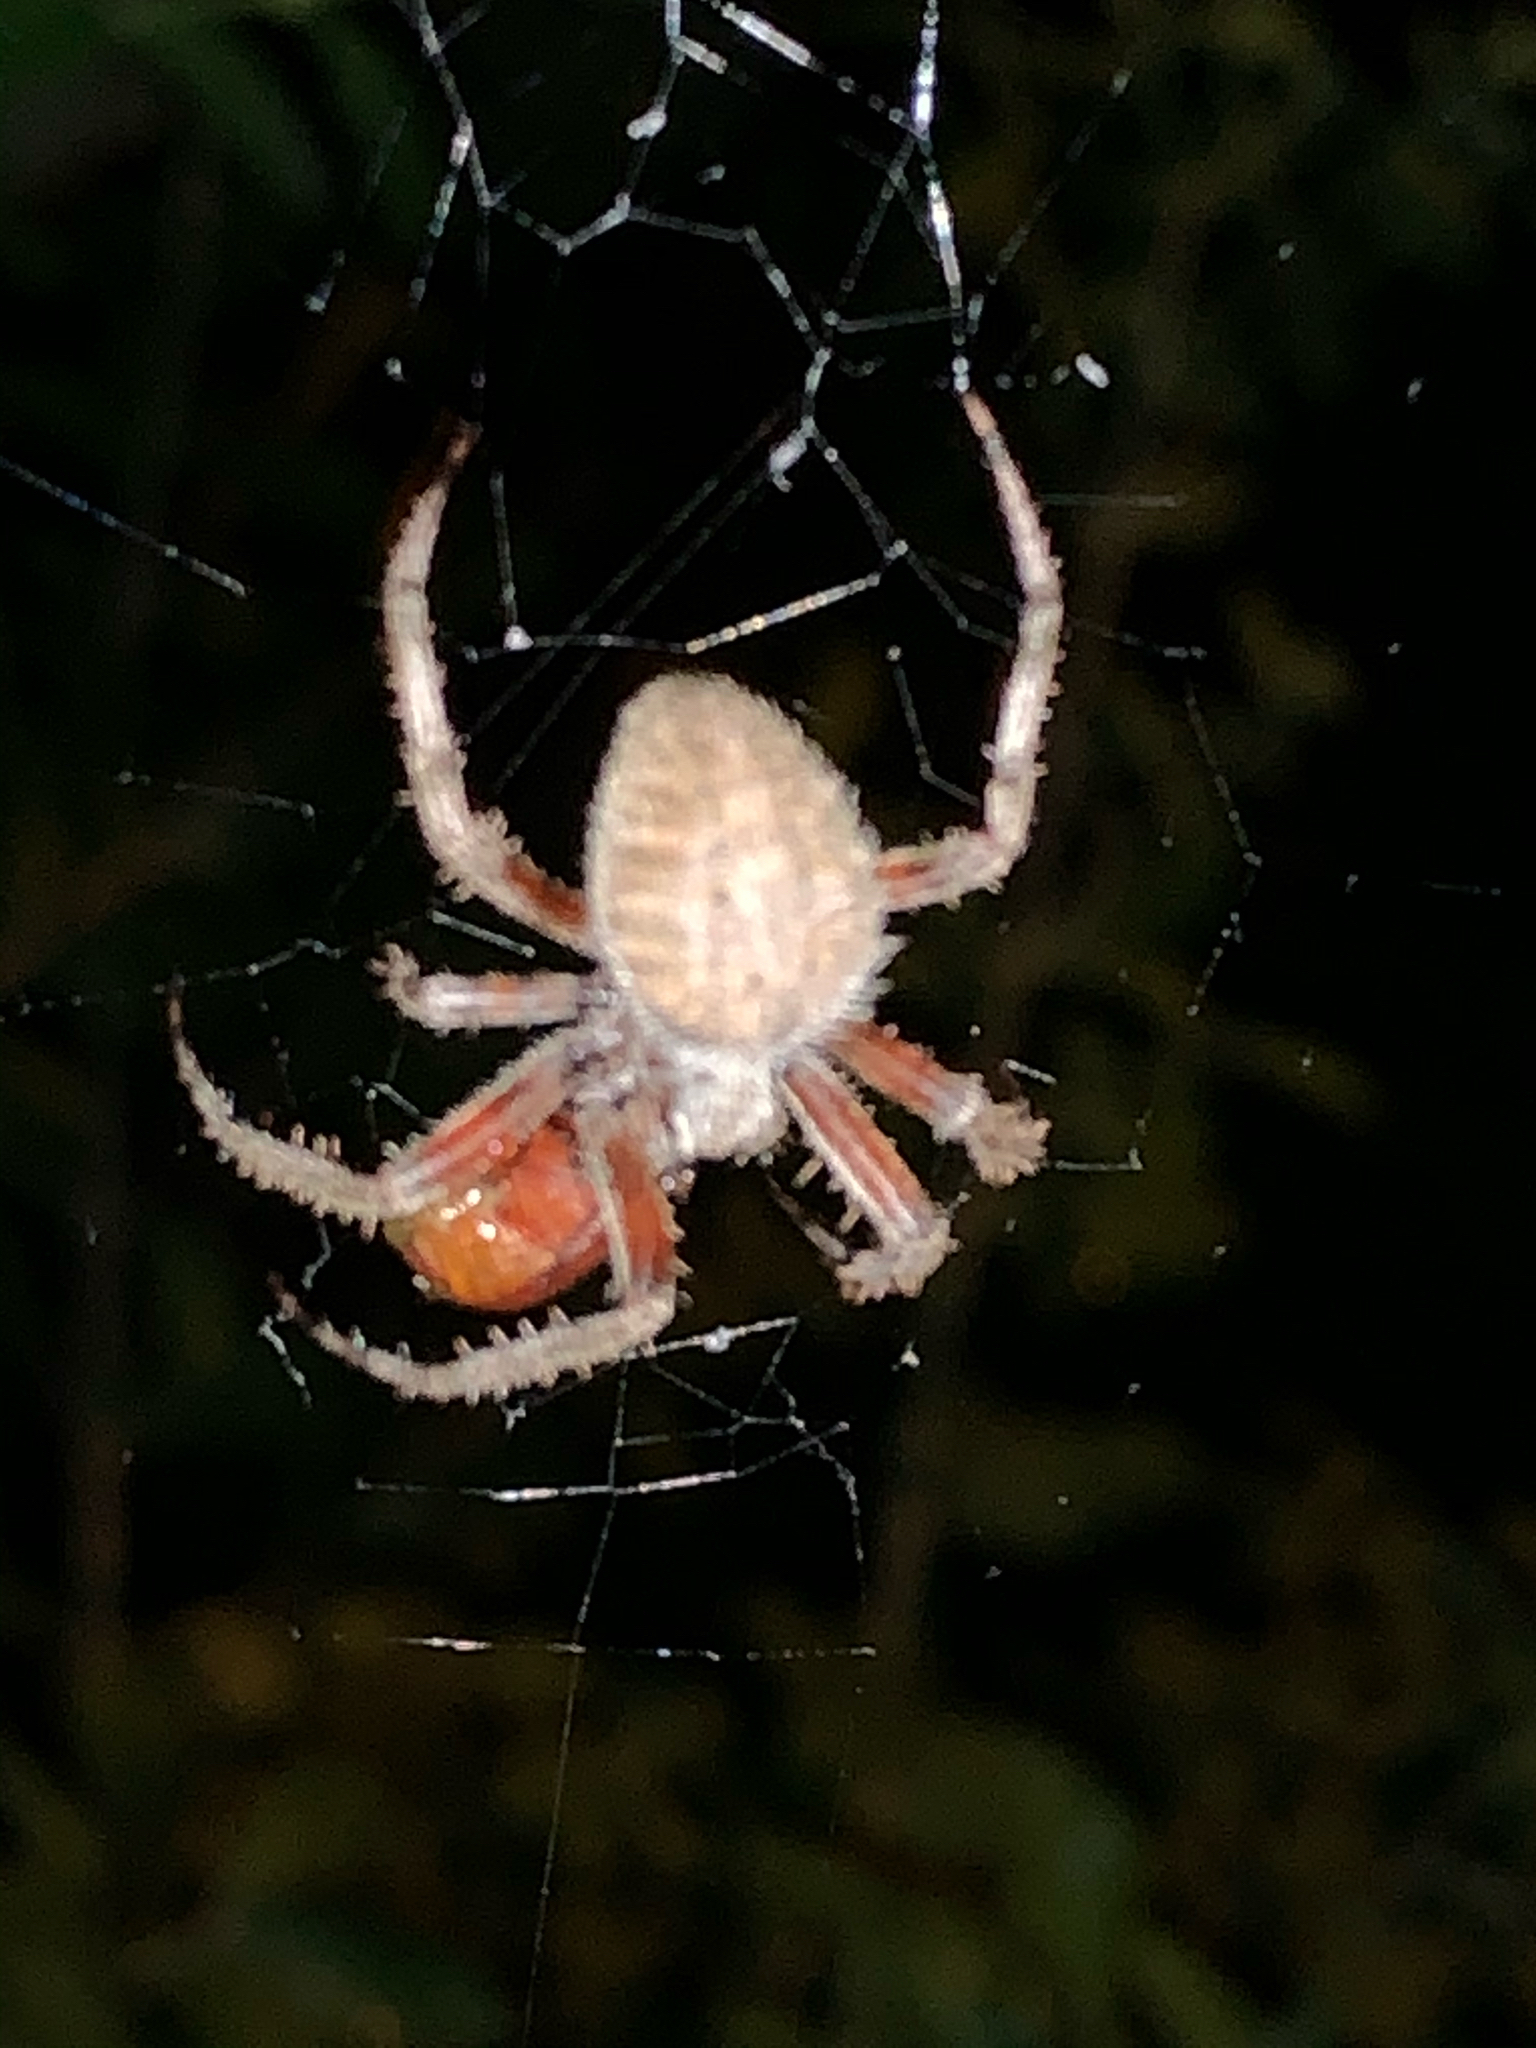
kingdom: Animalia
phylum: Arthropoda
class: Arachnida
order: Araneae
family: Araneidae
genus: Neoscona
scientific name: Neoscona crucifera
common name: Spotted orbweaver
